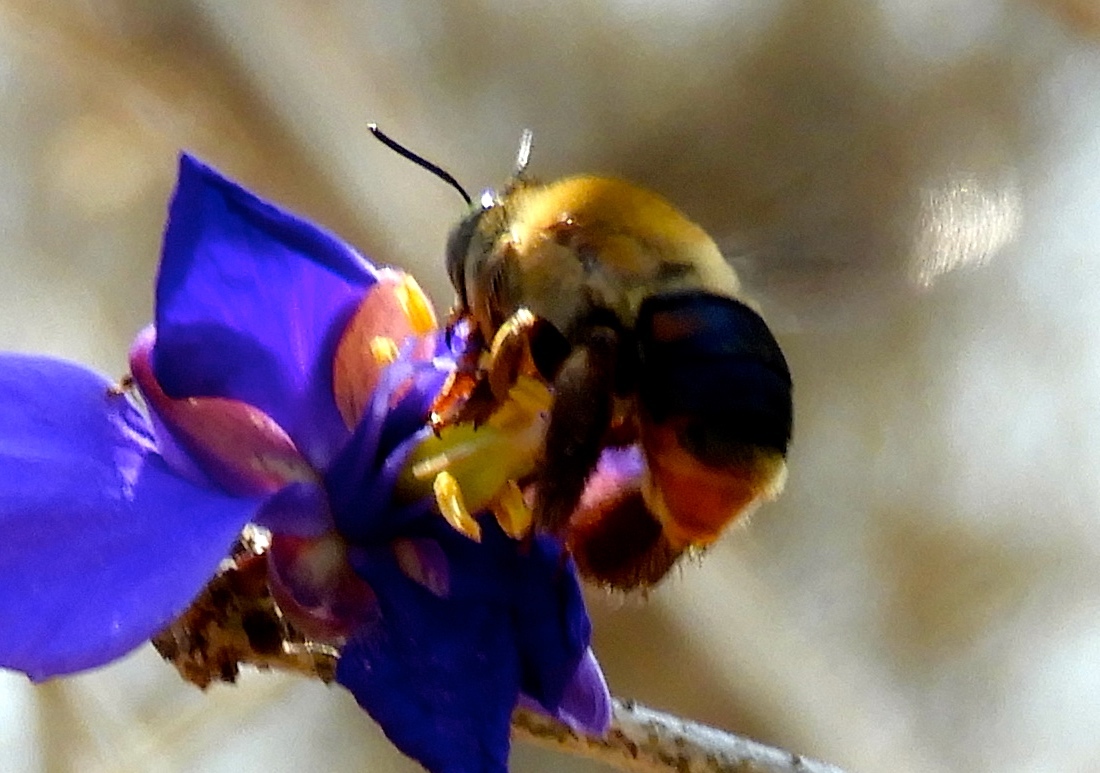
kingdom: Animalia
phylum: Arthropoda
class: Insecta
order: Hymenoptera
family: Apidae
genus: Centris
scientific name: Centris
